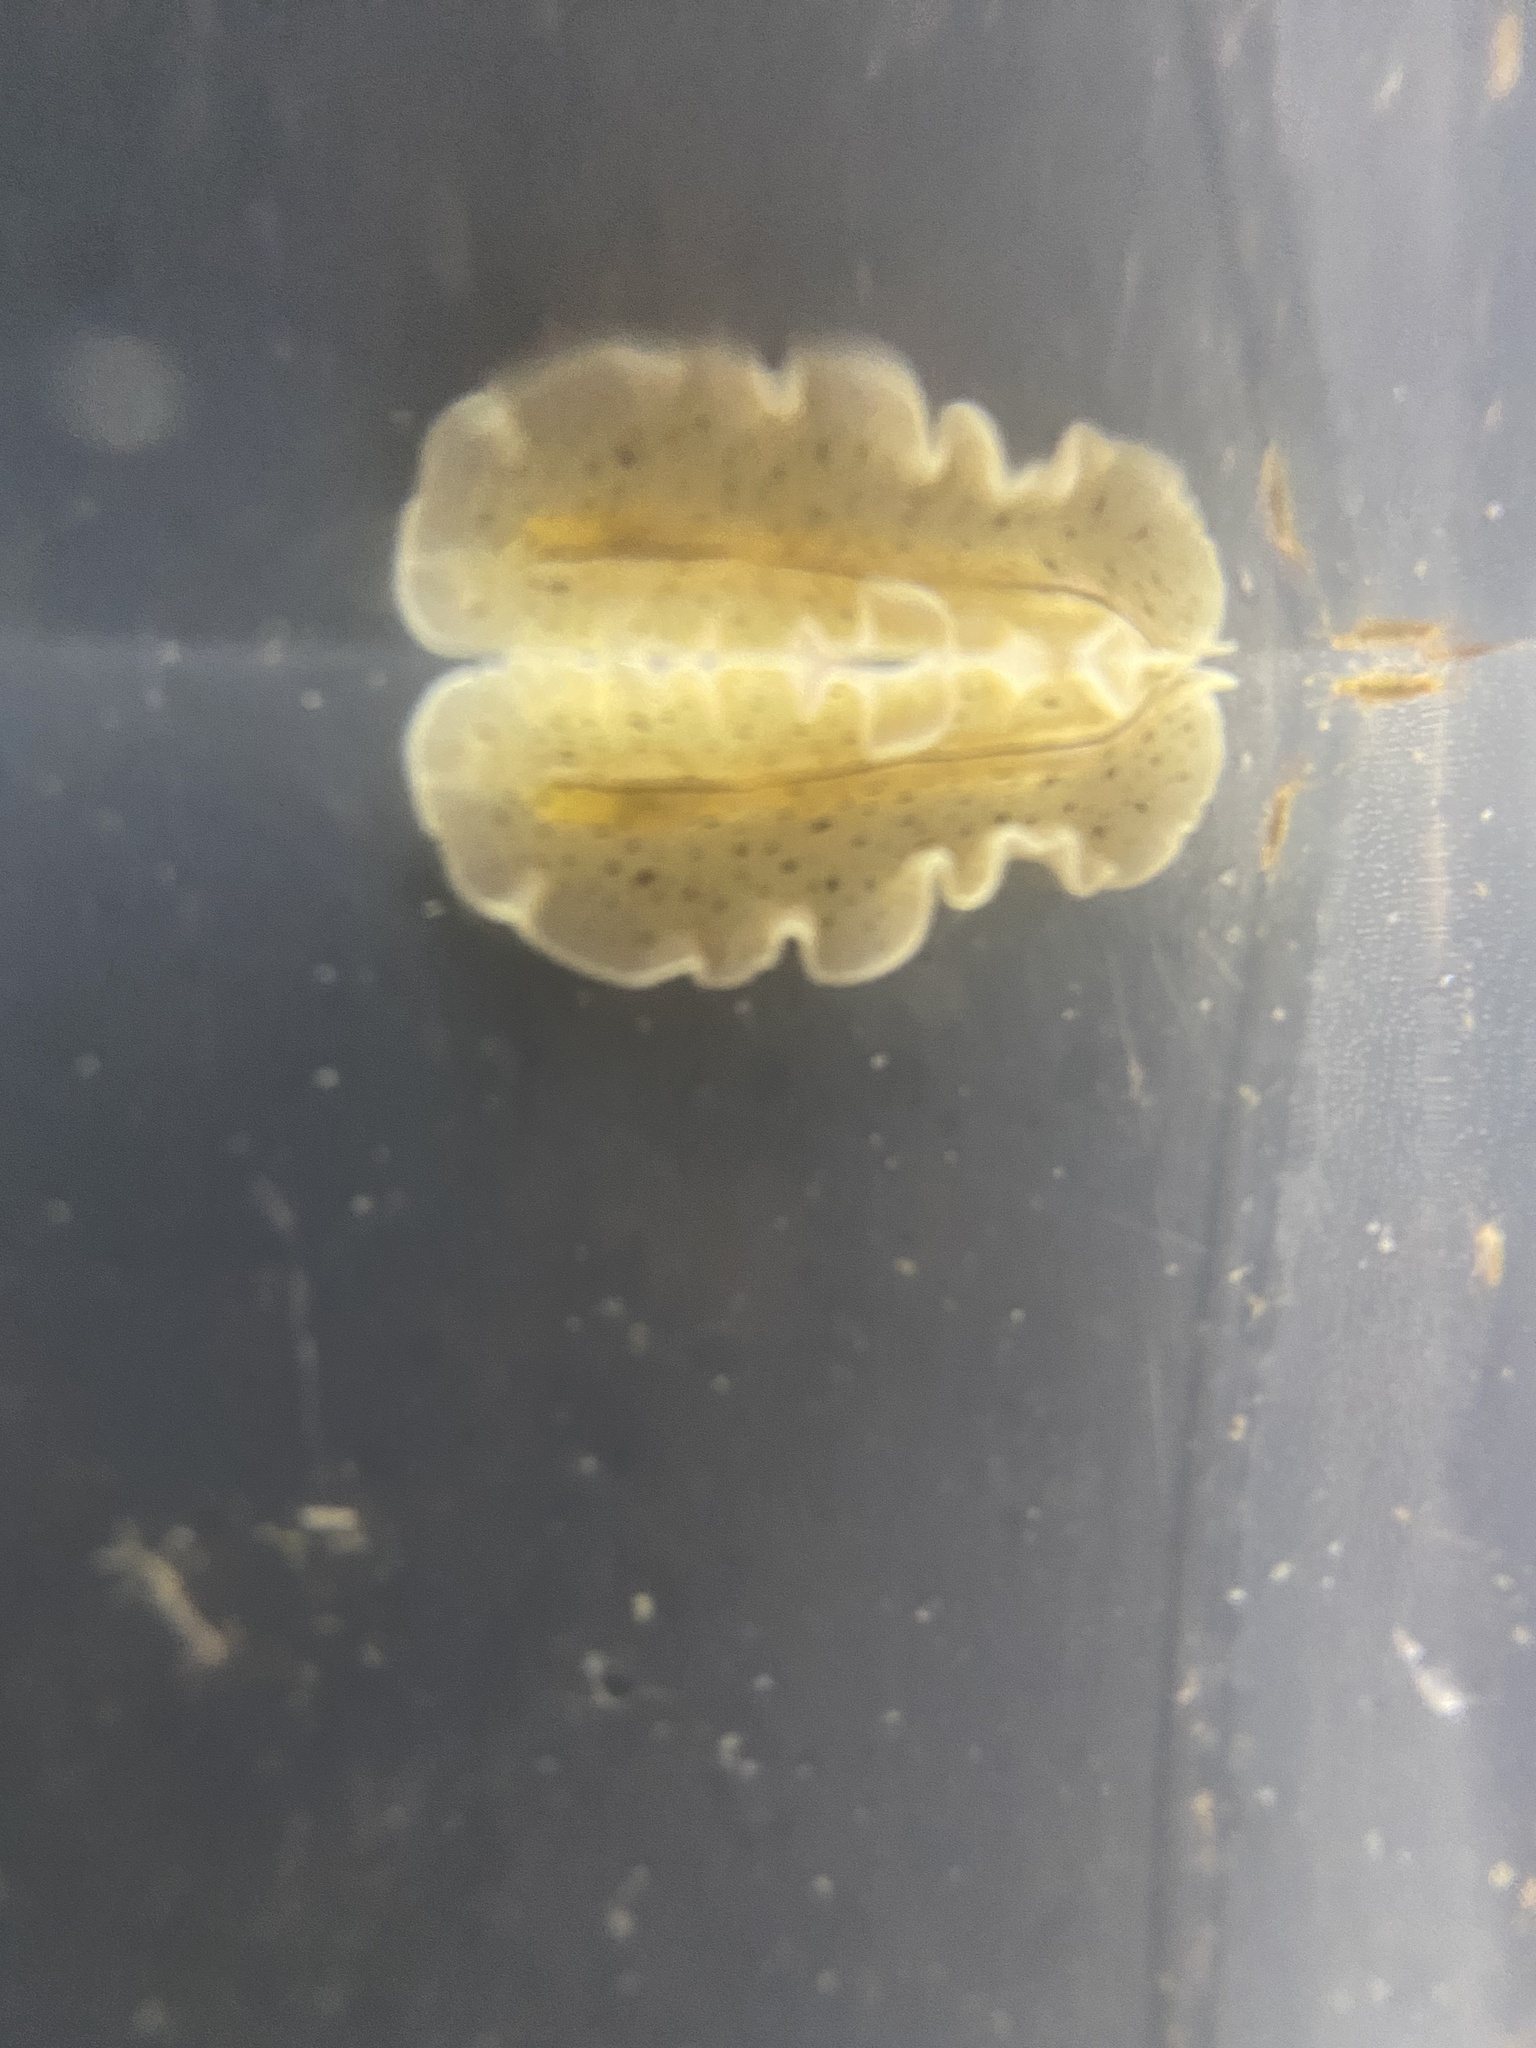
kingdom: Animalia
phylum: Platyhelminthes
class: Turbellaria
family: Pseudocerotidae
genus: Phrikoceros
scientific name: Phrikoceros inca
